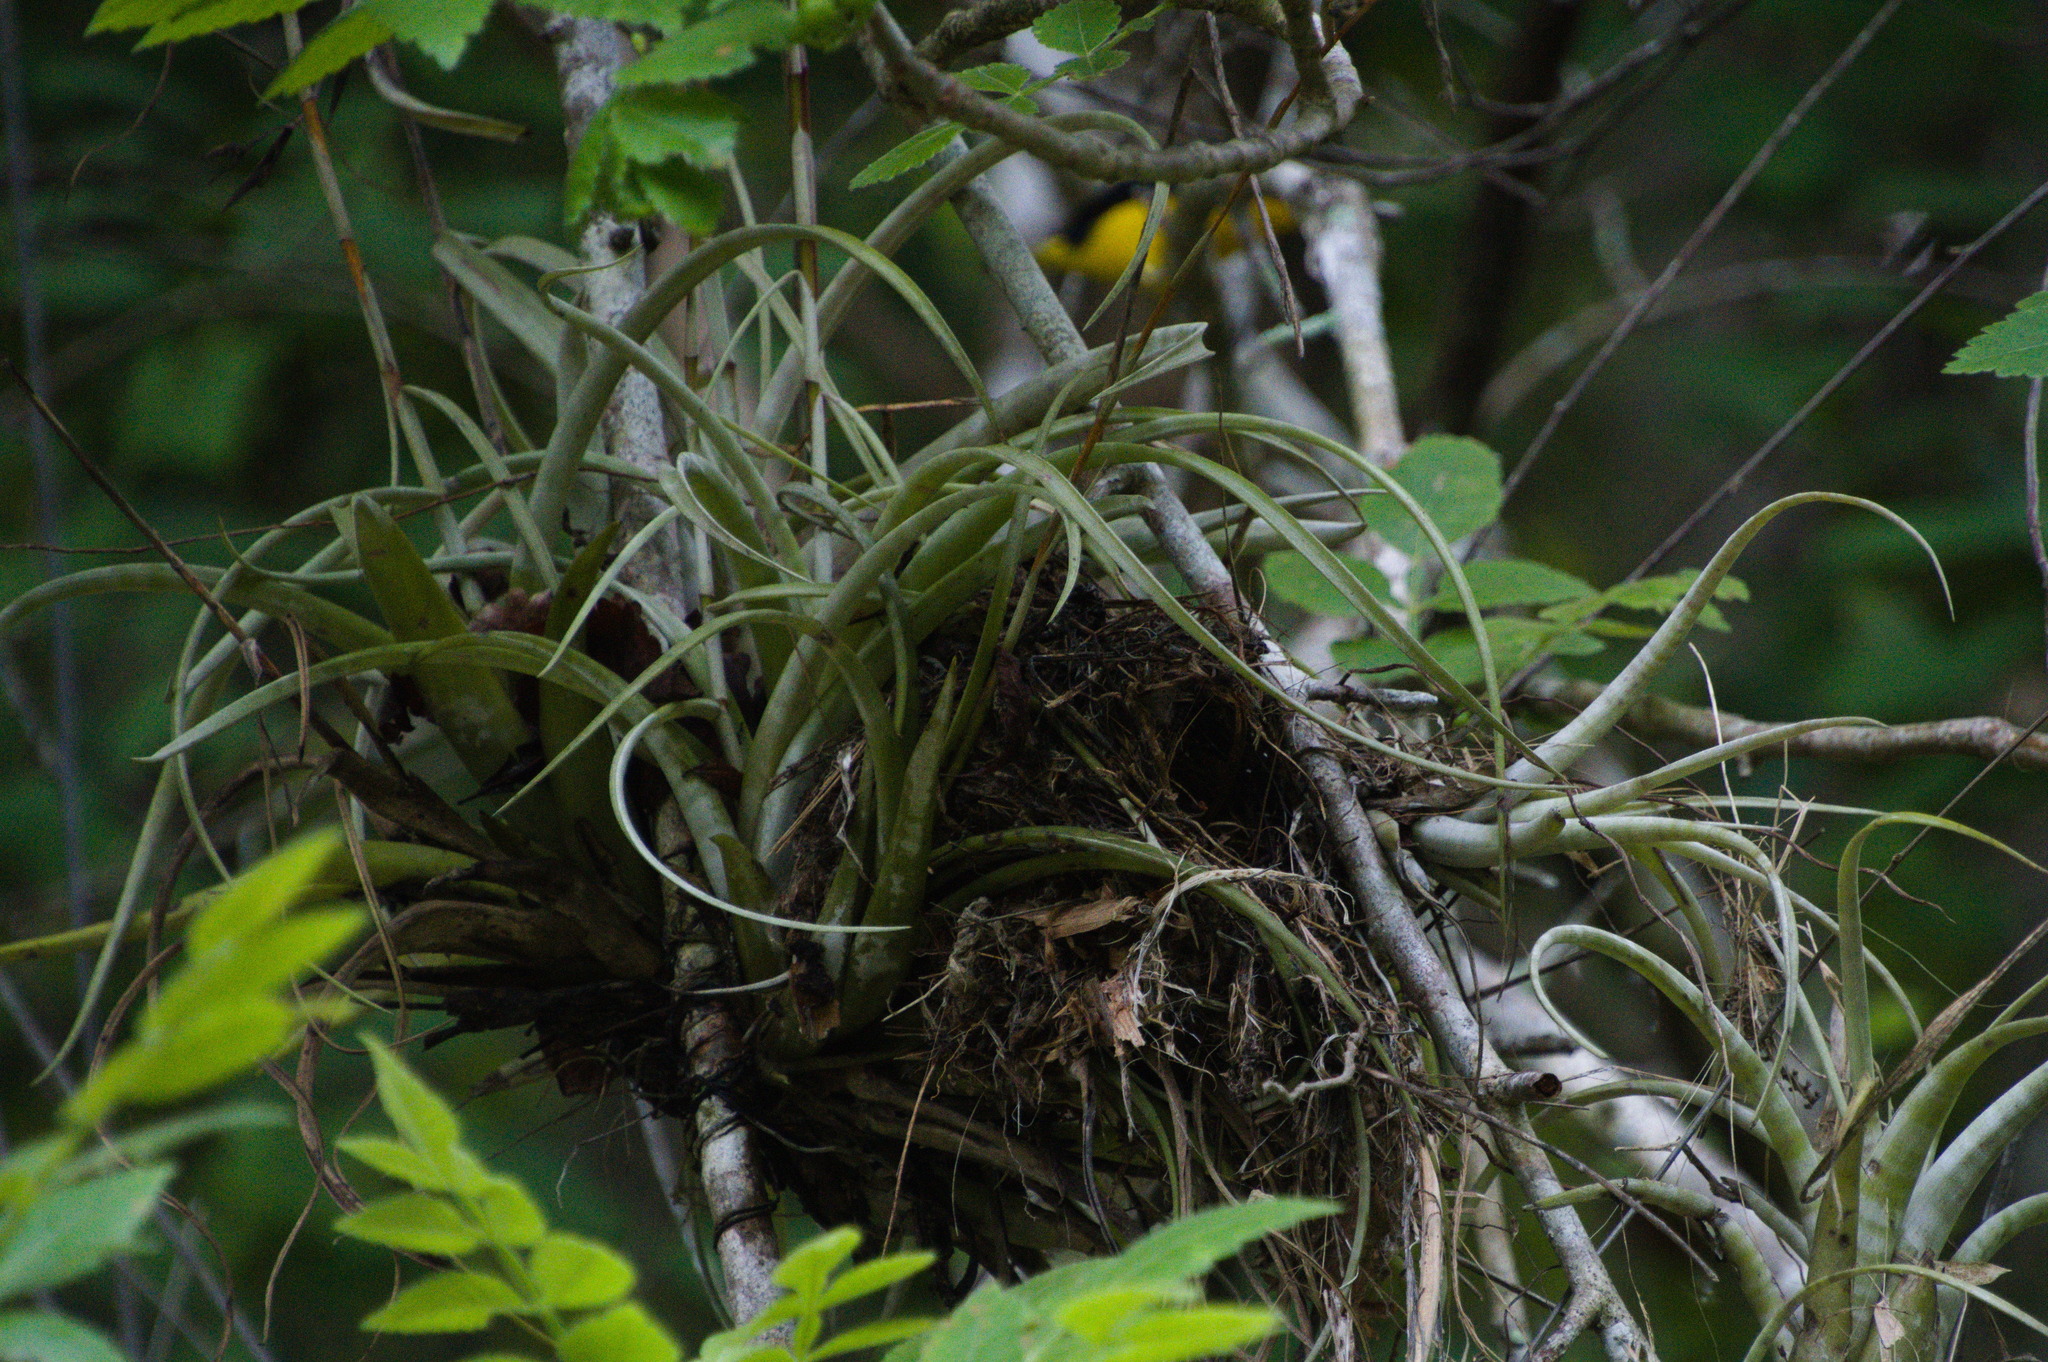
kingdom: Plantae
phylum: Tracheophyta
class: Liliopsida
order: Poales
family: Bromeliaceae
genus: Tillandsia
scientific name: Tillandsia flexuosa
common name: Banded airplant
